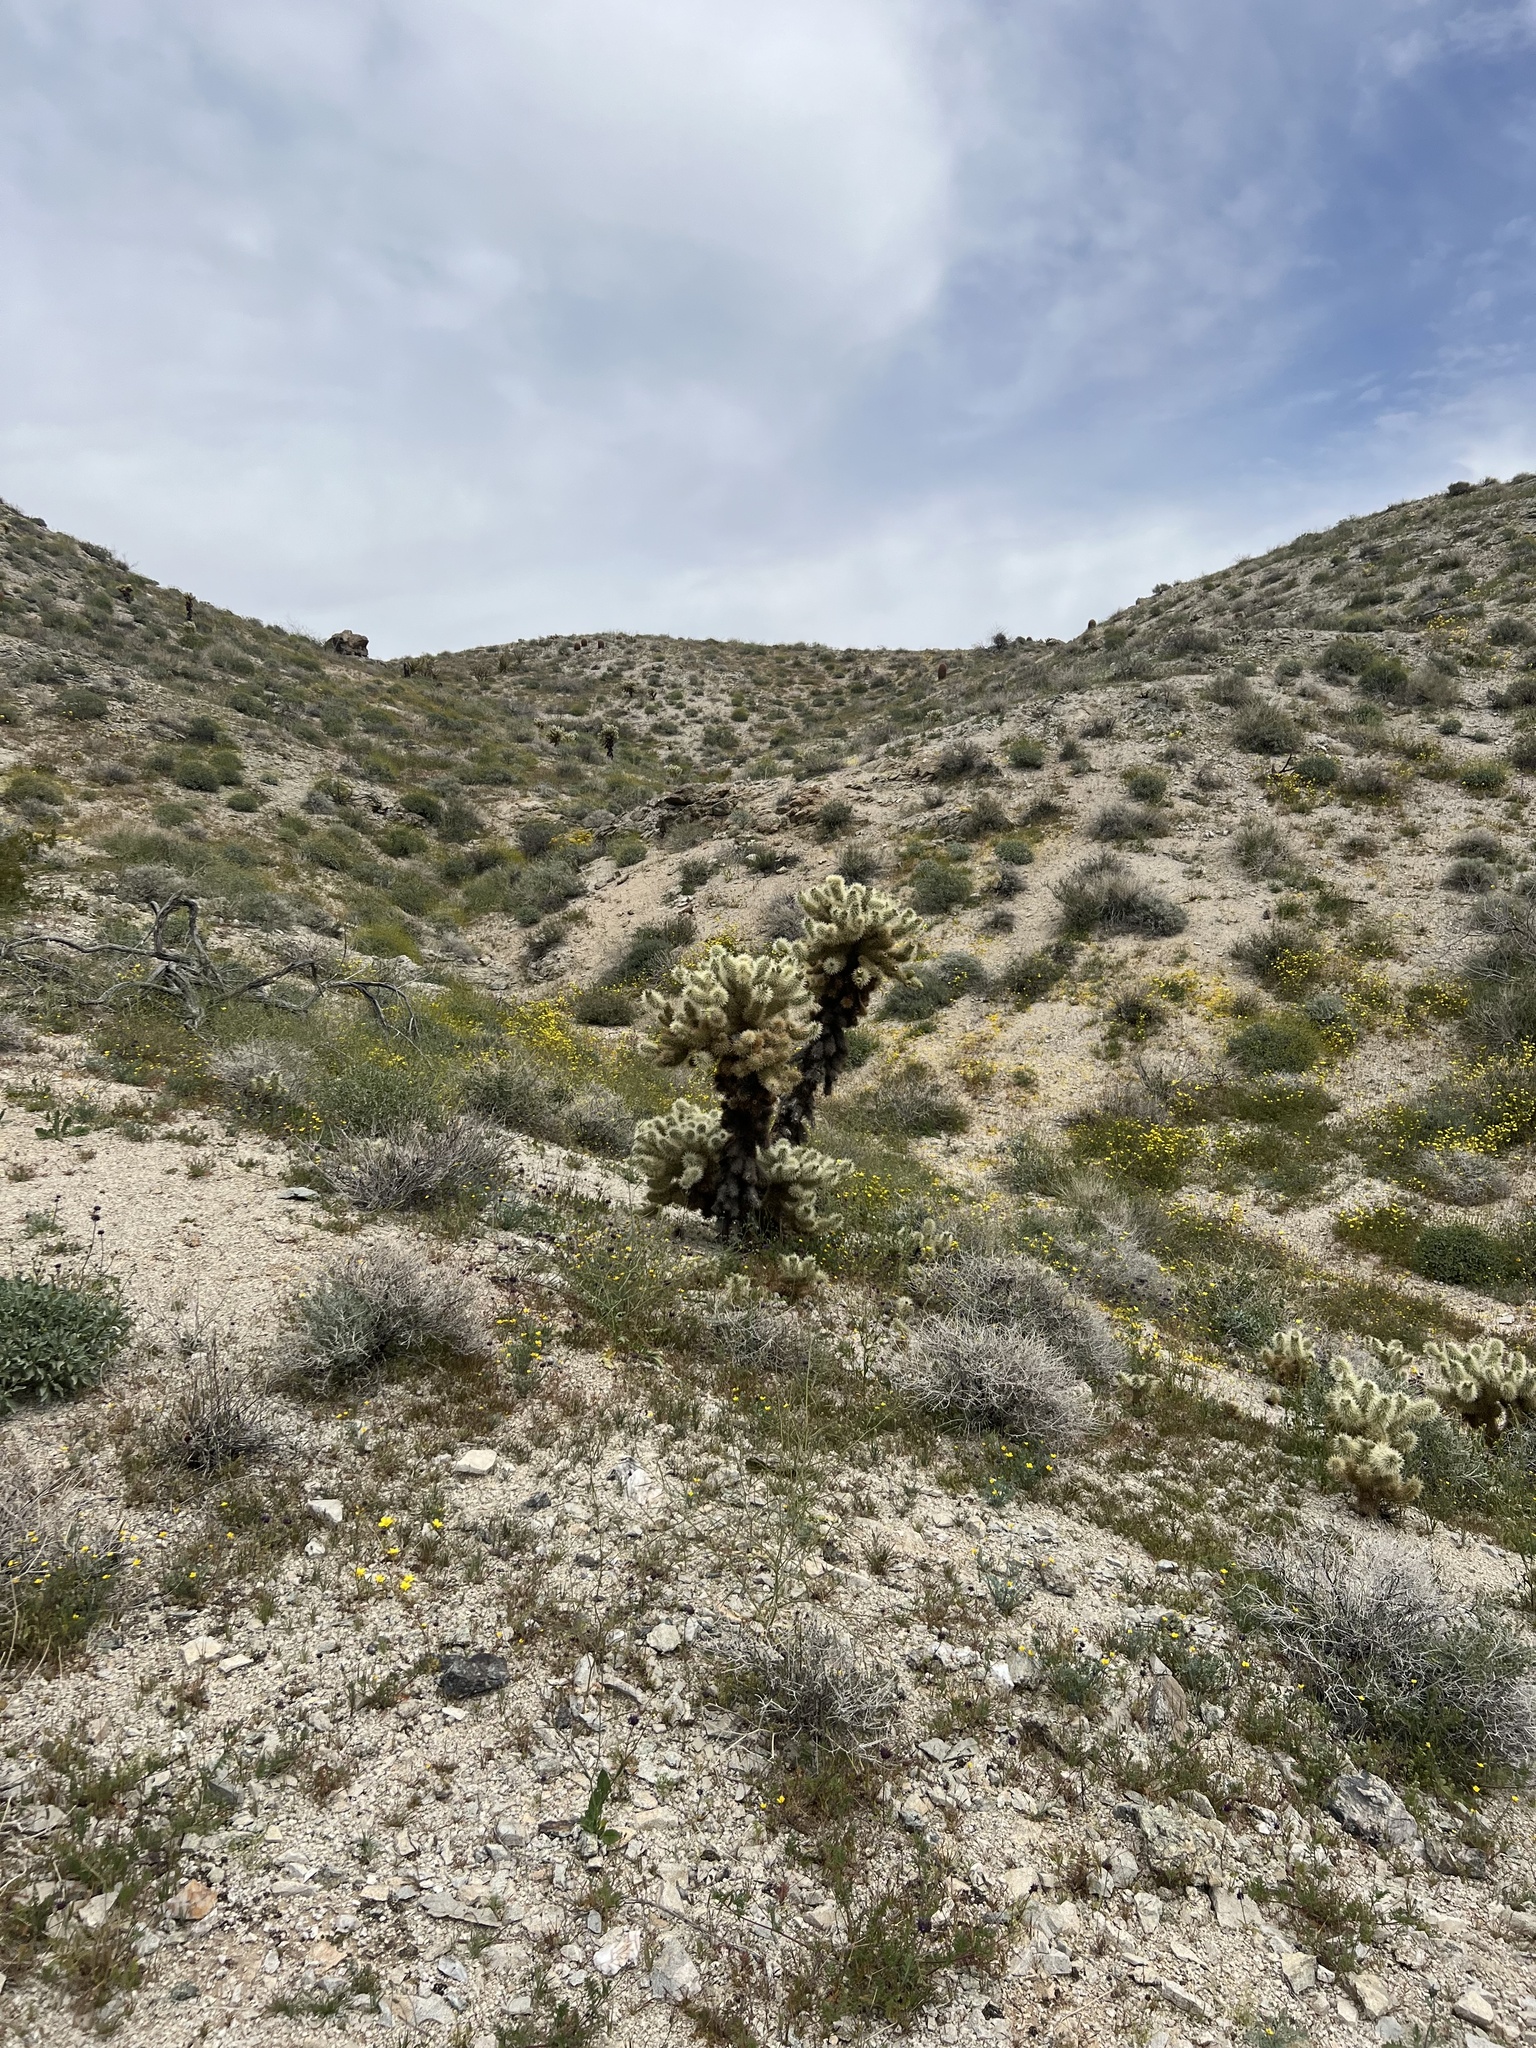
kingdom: Plantae
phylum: Tracheophyta
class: Magnoliopsida
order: Caryophyllales
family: Cactaceae
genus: Cylindropuntia
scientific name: Cylindropuntia fosbergii
